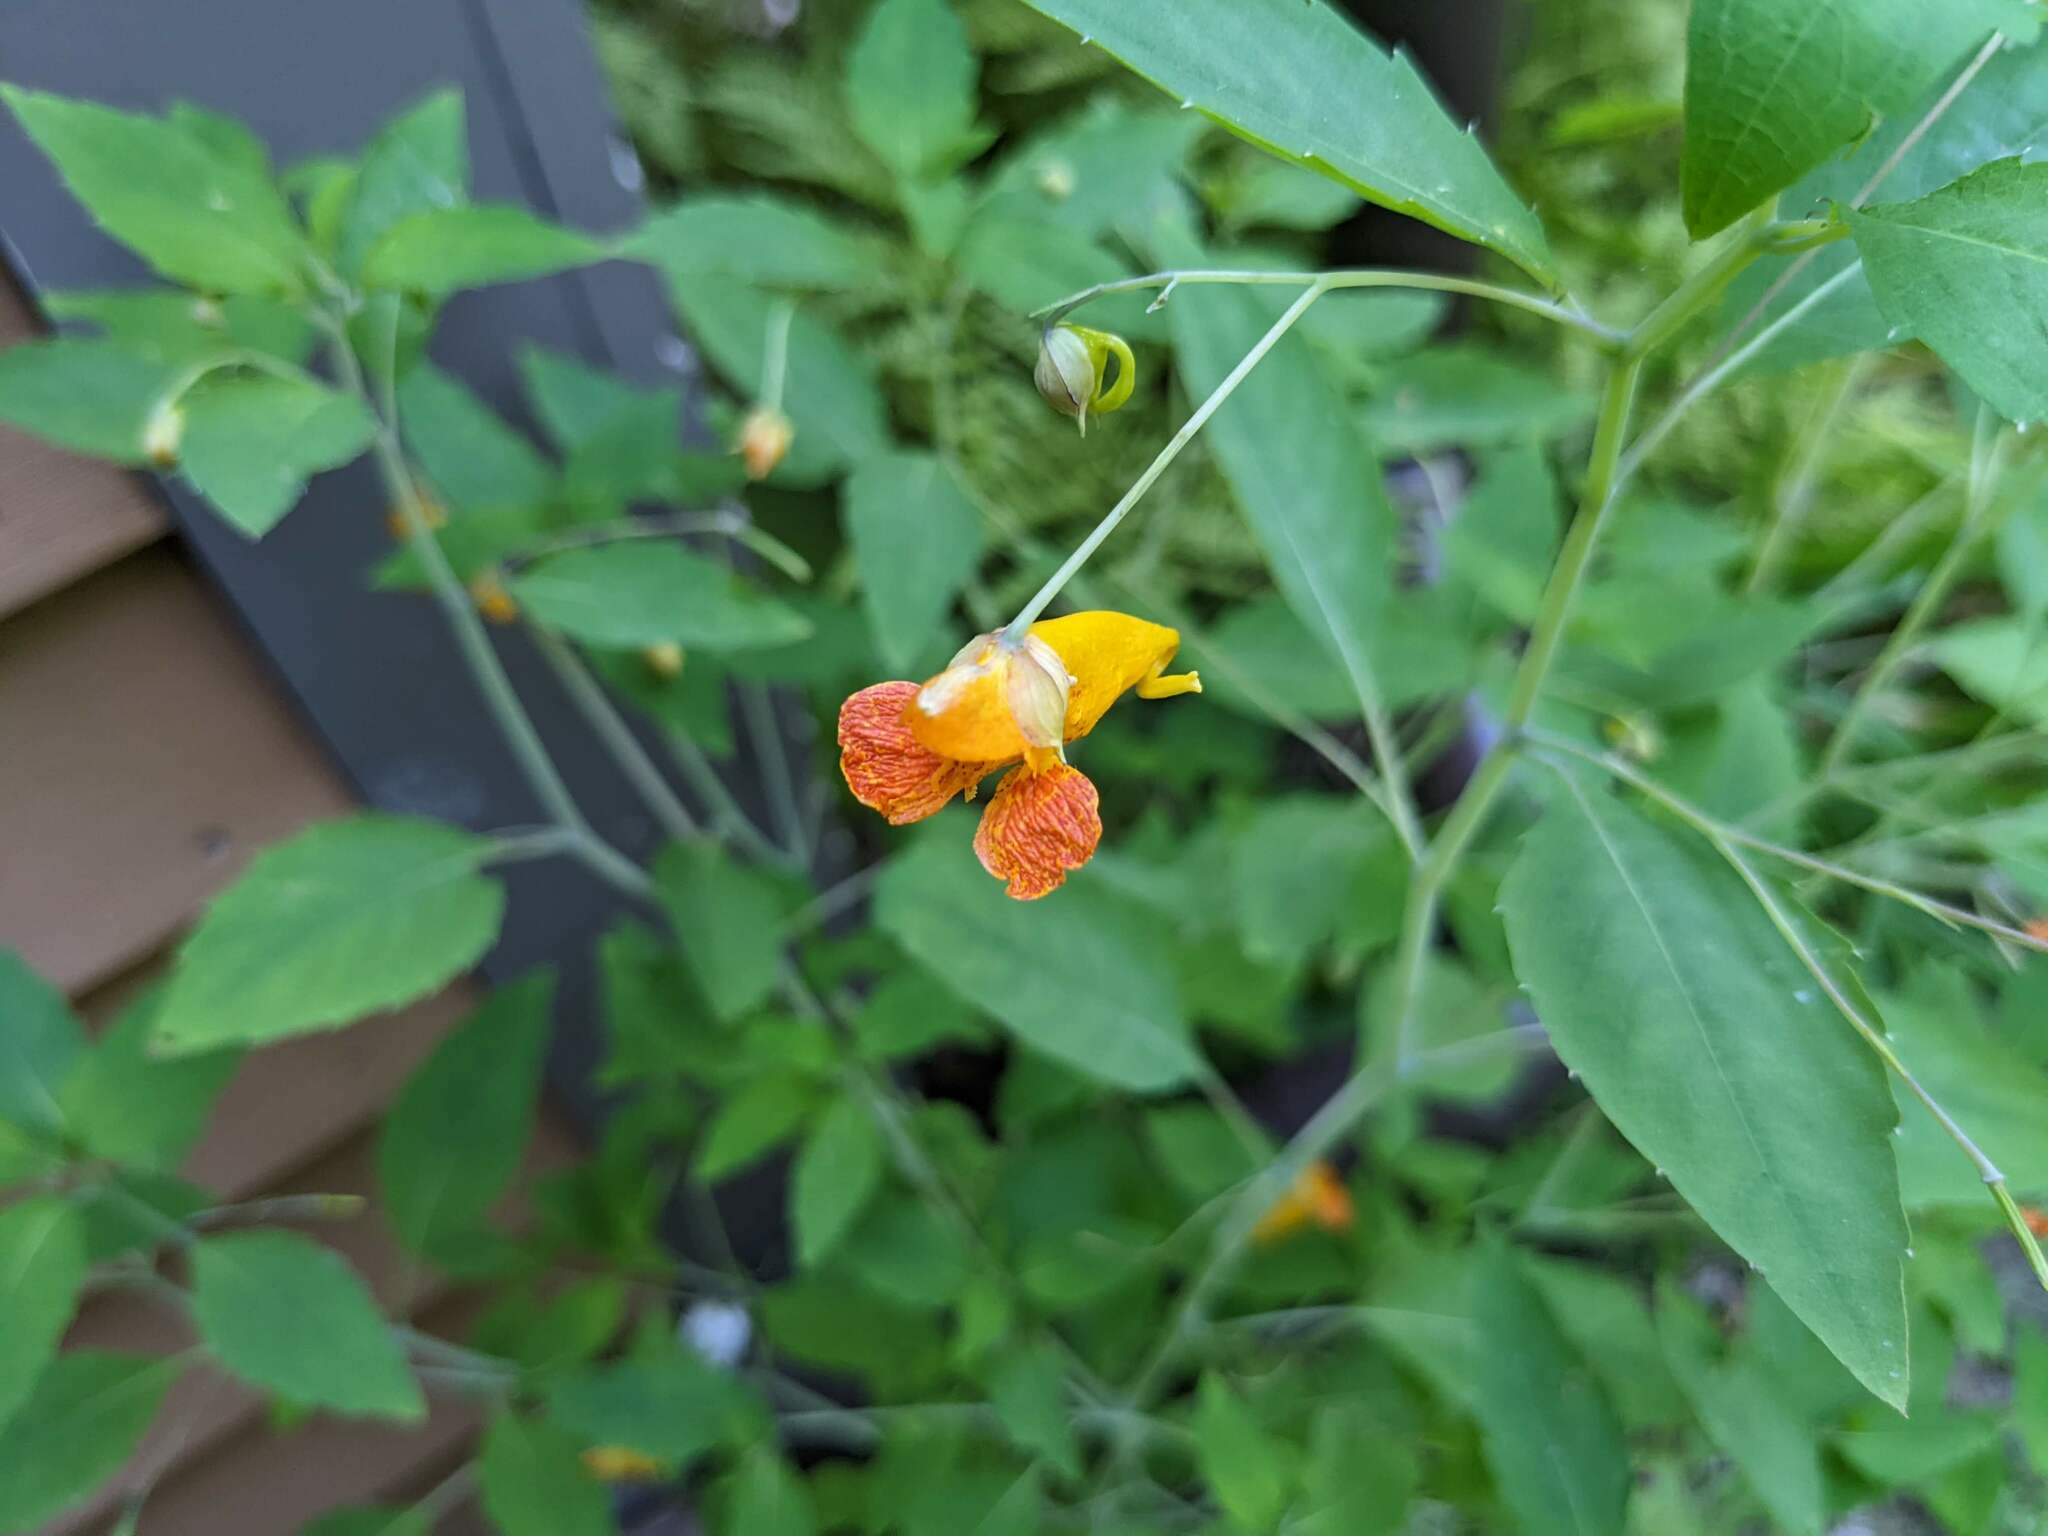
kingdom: Plantae
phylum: Tracheophyta
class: Magnoliopsida
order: Ericales
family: Balsaminaceae
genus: Impatiens
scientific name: Impatiens capensis
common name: Orange balsam
